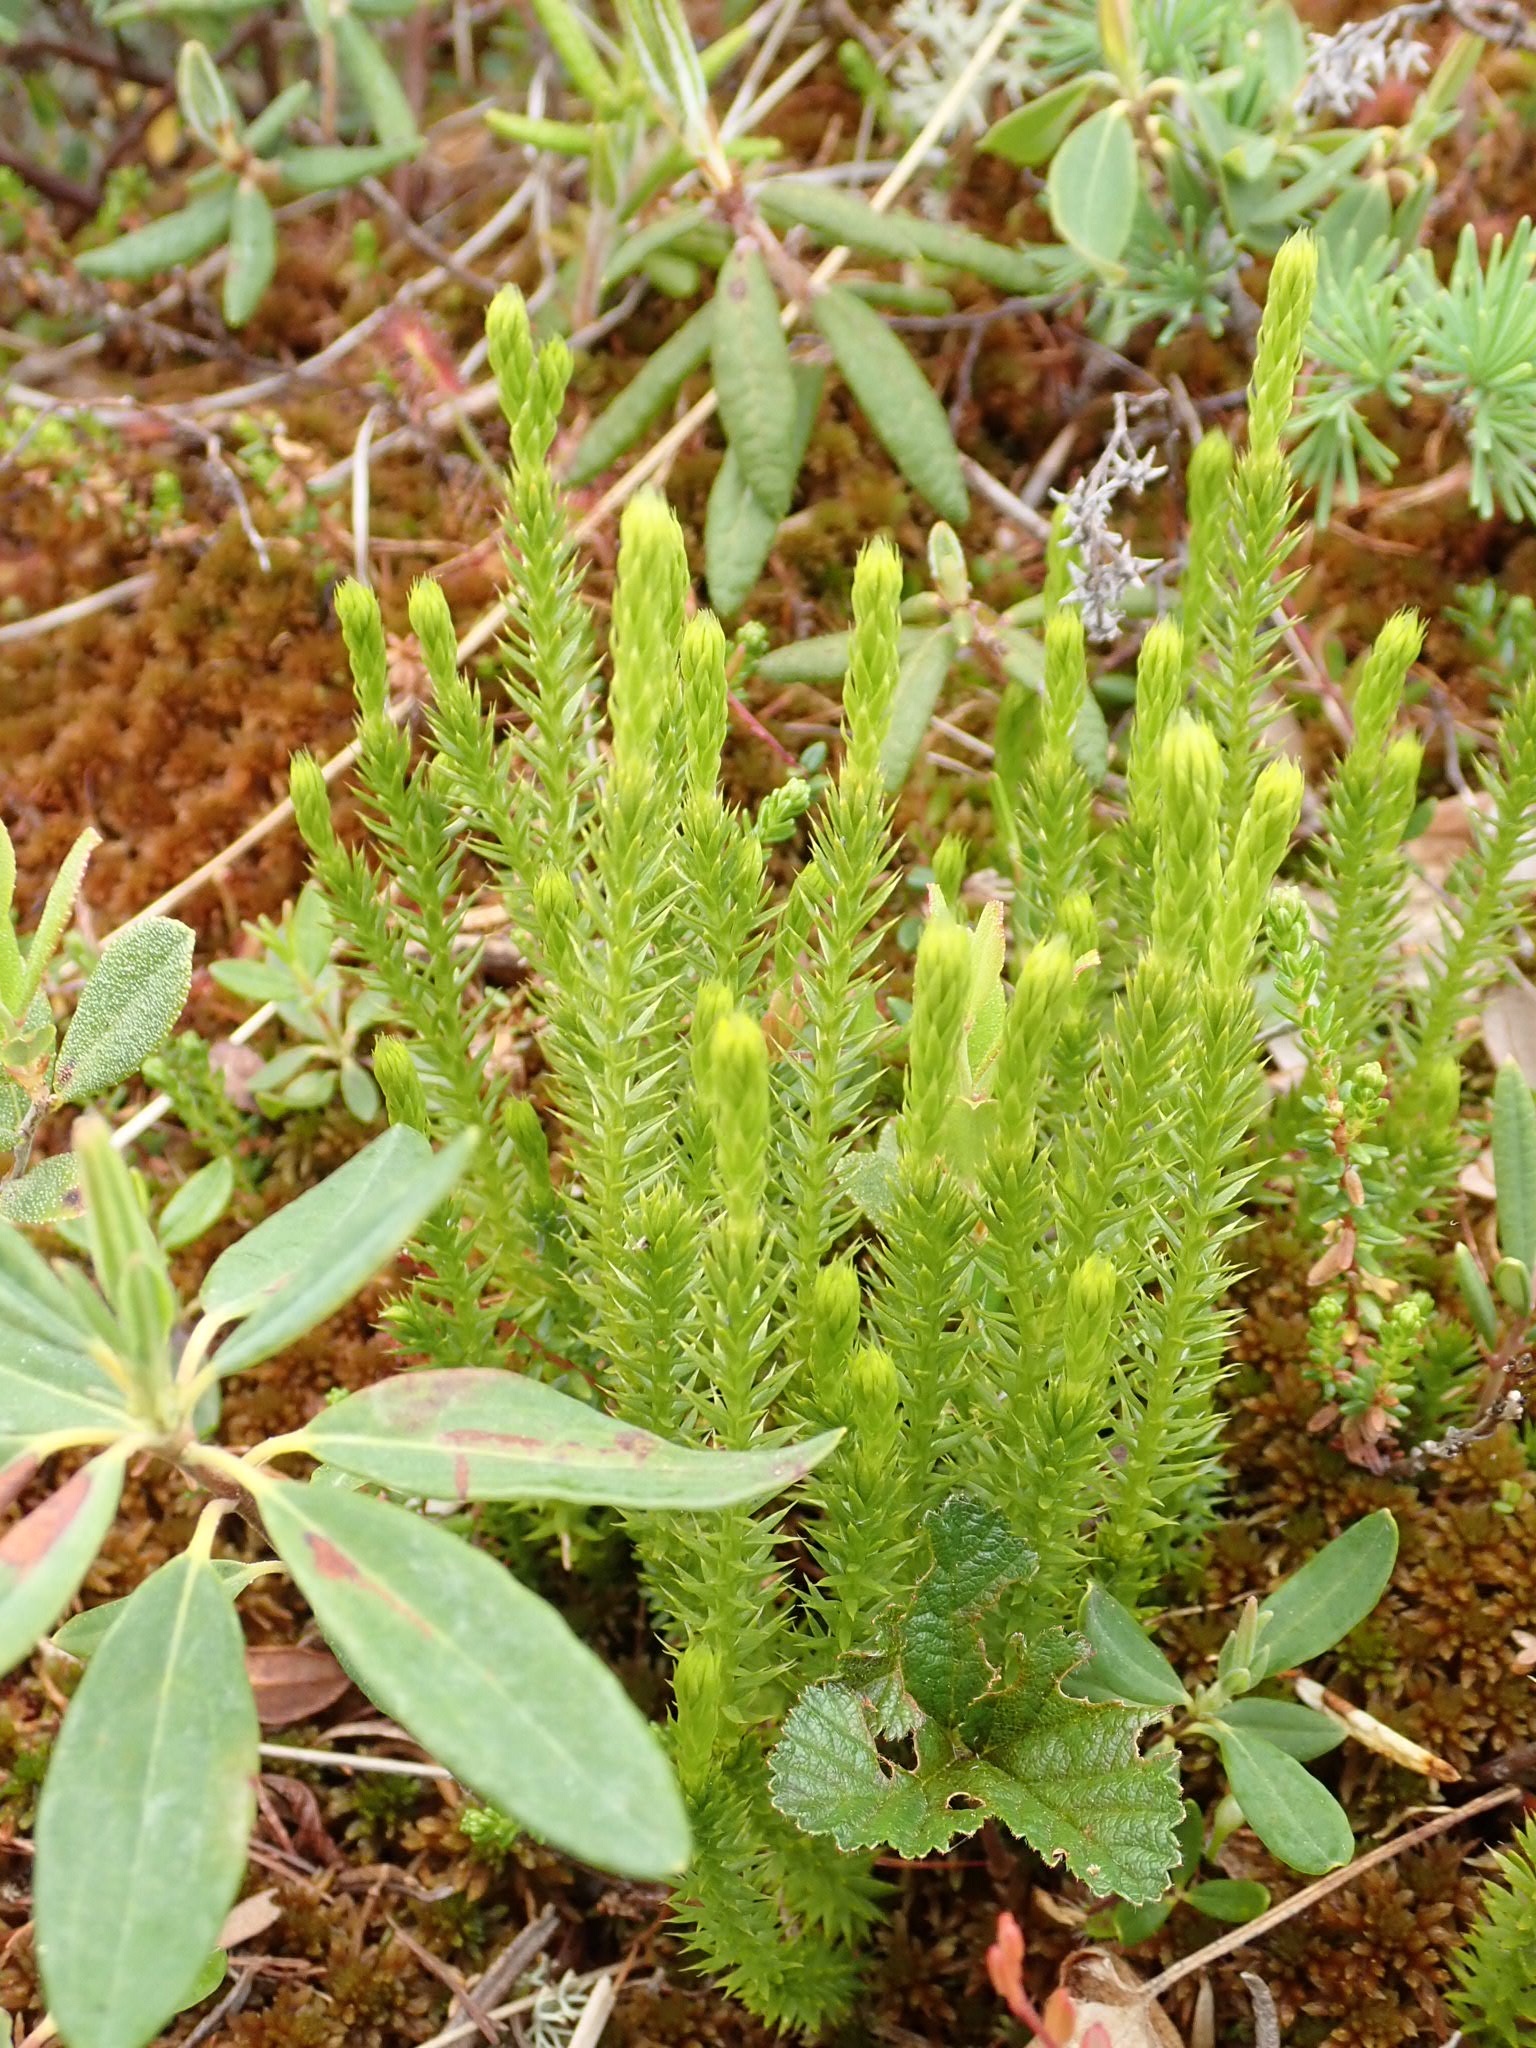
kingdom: Plantae
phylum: Tracheophyta
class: Lycopodiopsida
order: Lycopodiales
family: Lycopodiaceae
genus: Spinulum
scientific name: Spinulum annotinum
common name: Interrupted club-moss
